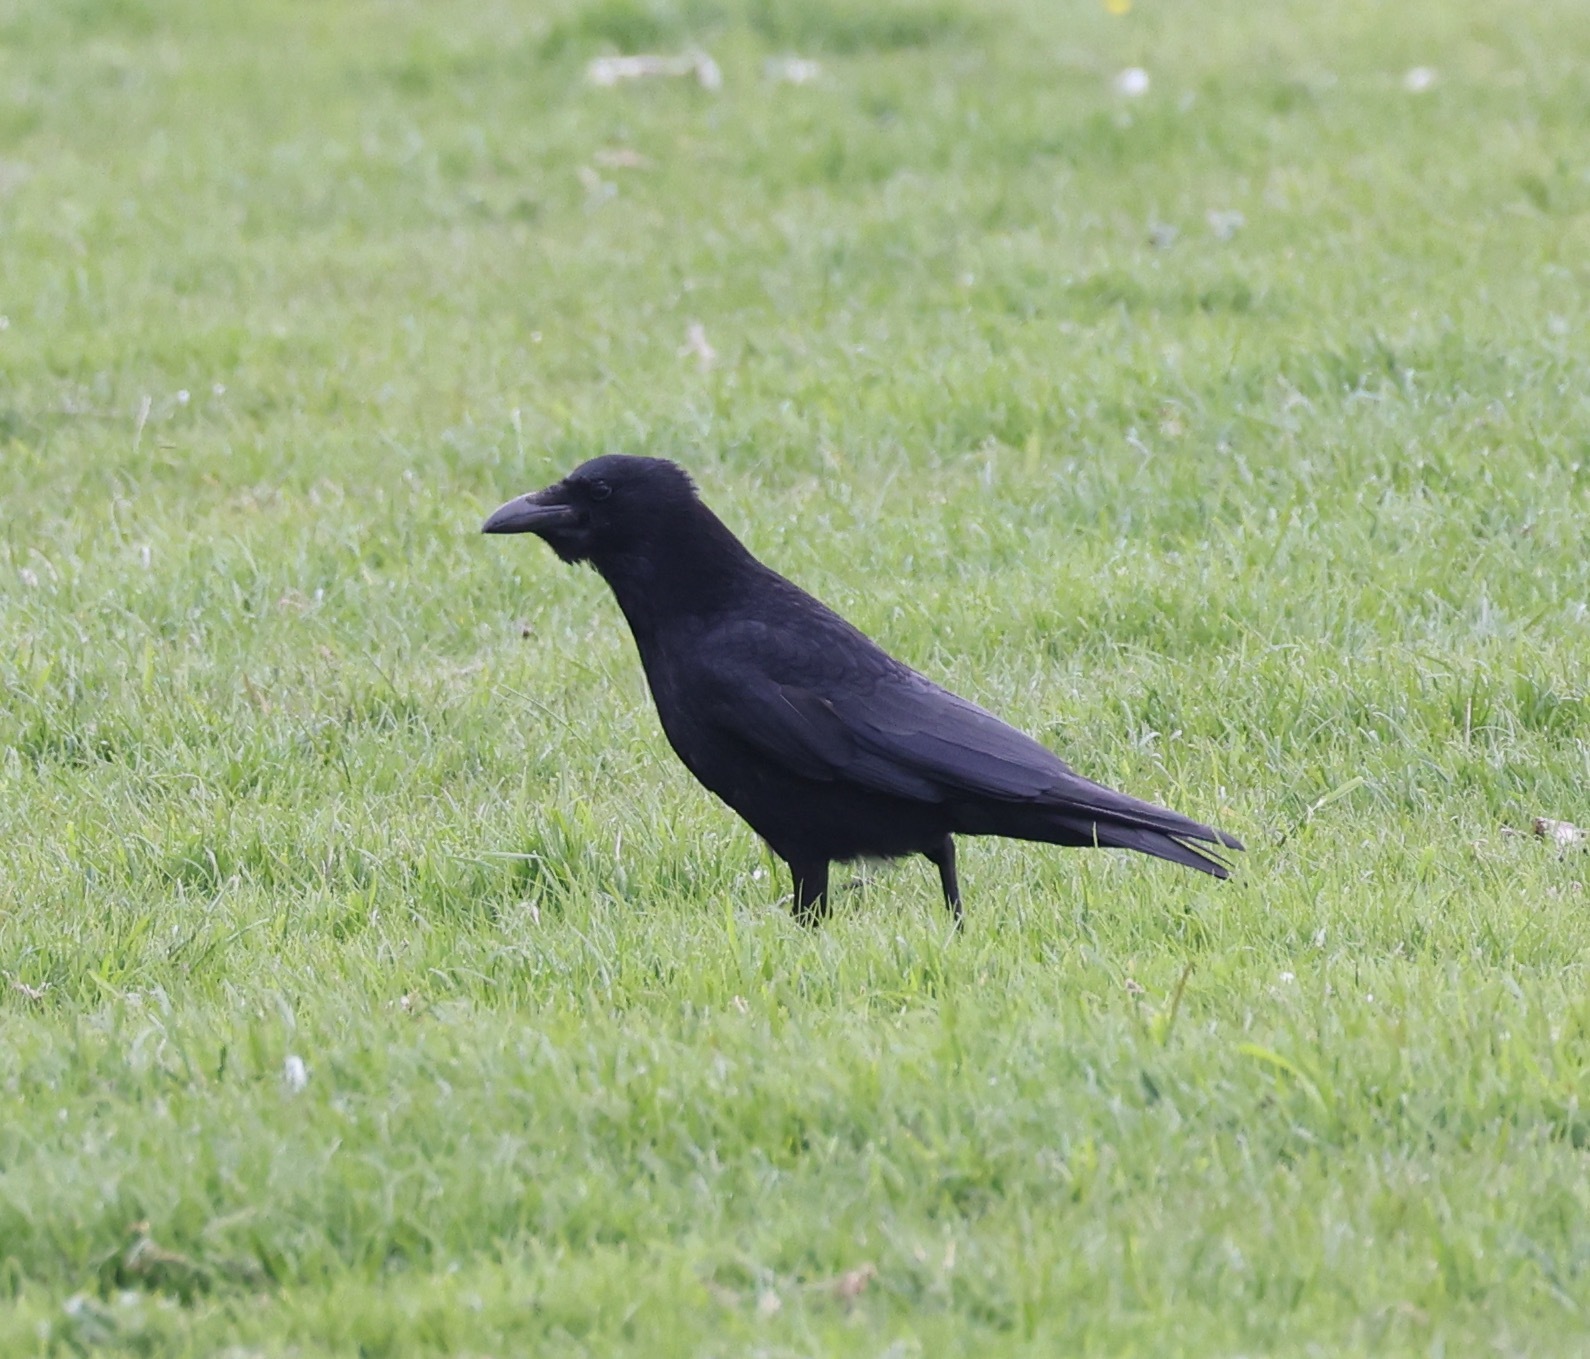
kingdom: Animalia
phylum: Chordata
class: Aves
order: Passeriformes
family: Corvidae
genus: Corvus
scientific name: Corvus corone
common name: Carrion crow
